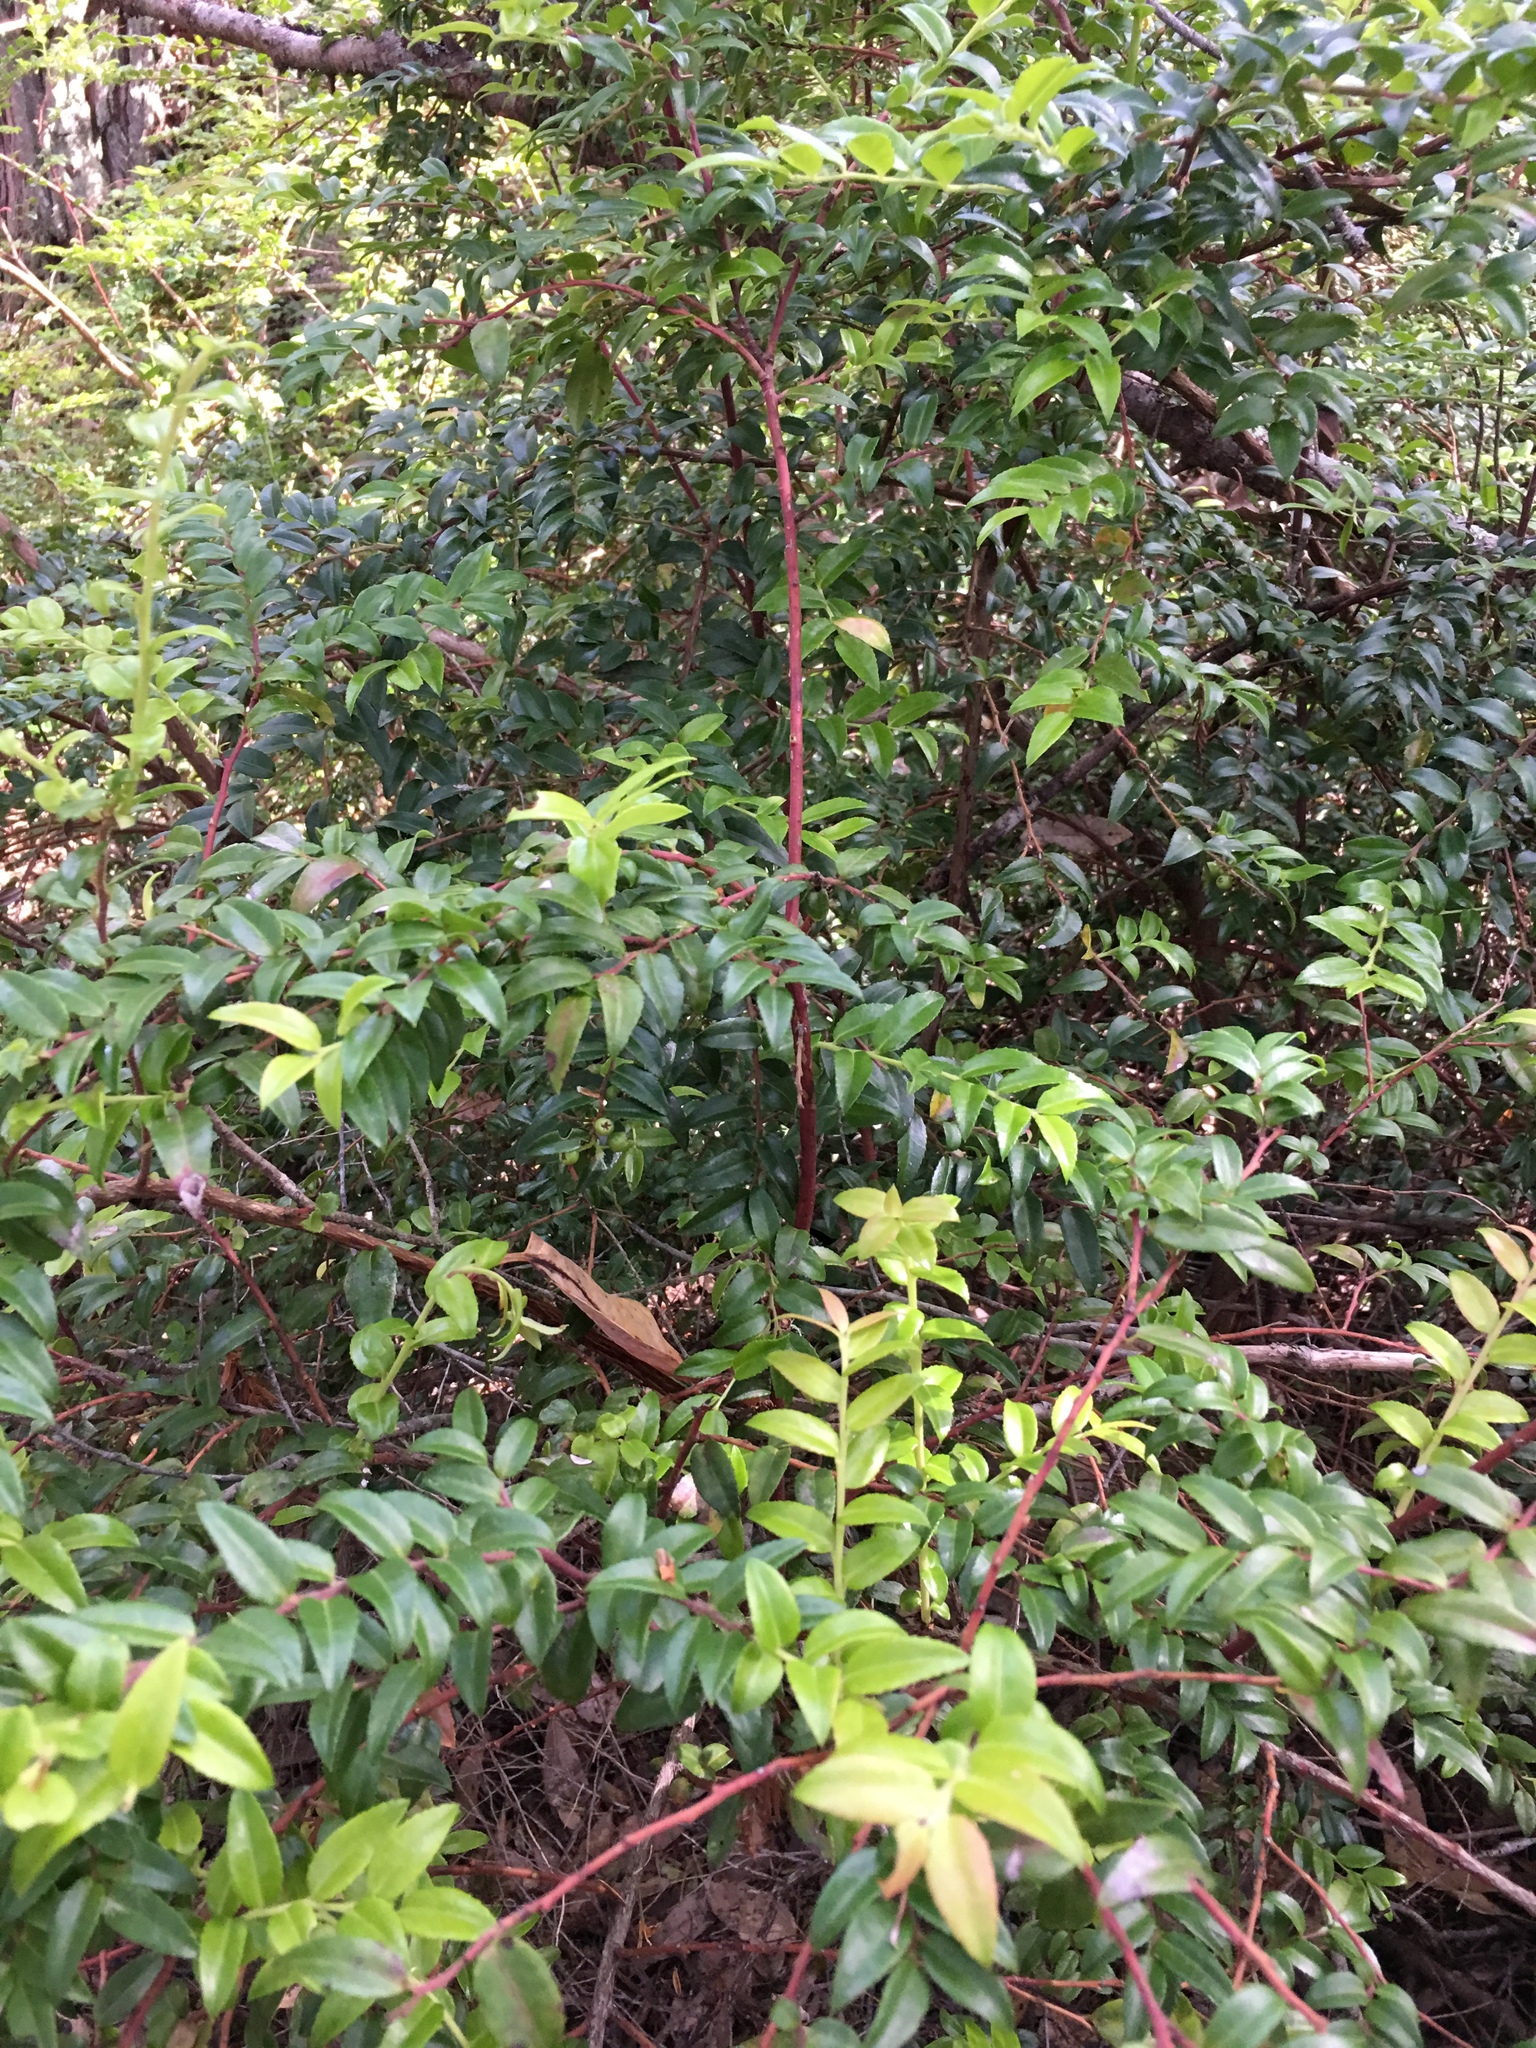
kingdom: Plantae
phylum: Tracheophyta
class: Magnoliopsida
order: Ericales
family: Ericaceae
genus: Vaccinium
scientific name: Vaccinium ovatum
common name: California-huckleberry
